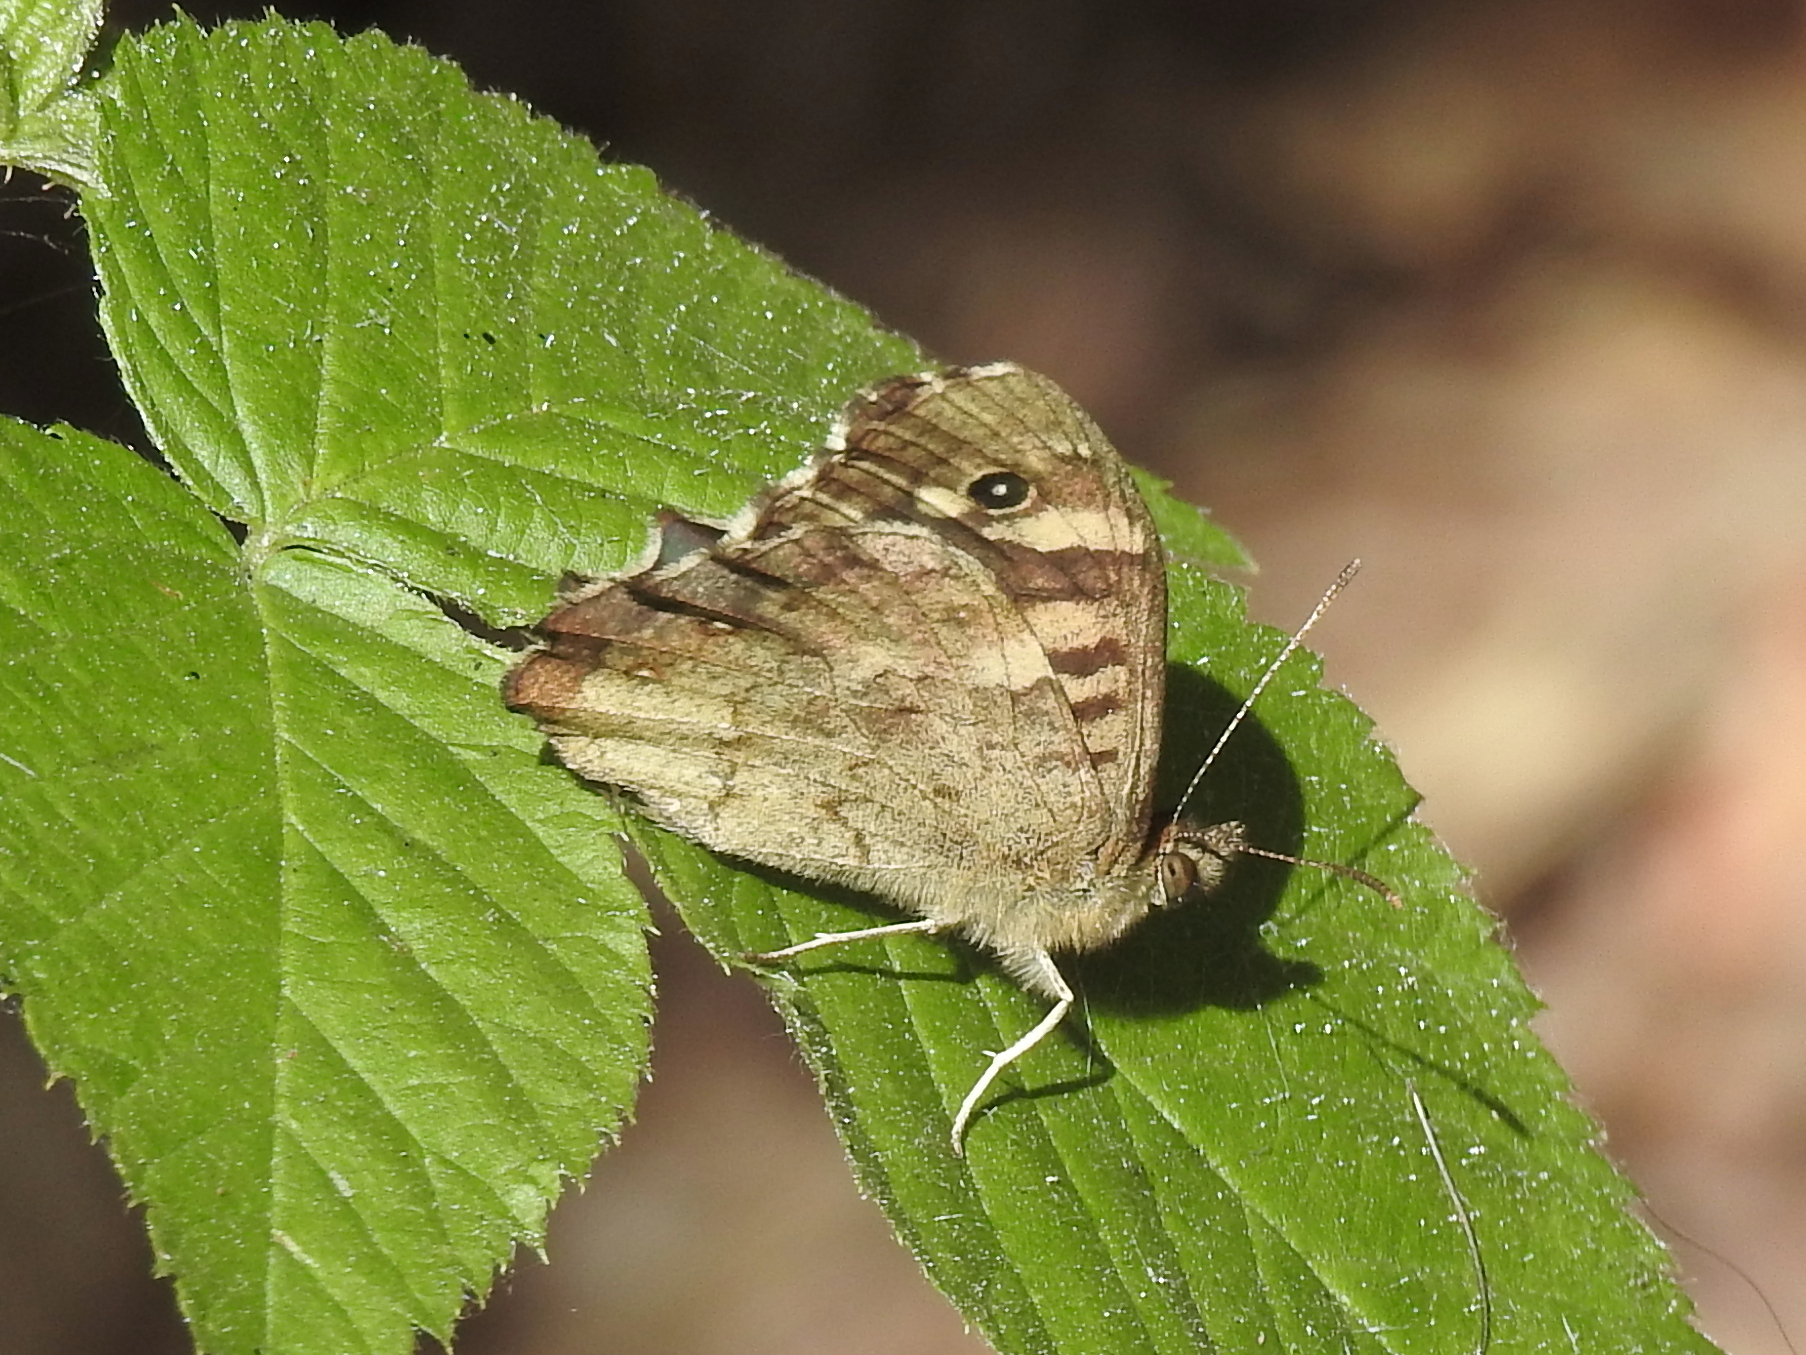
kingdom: Animalia
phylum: Arthropoda
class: Insecta
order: Lepidoptera
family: Nymphalidae
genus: Pararge
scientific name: Pararge aegeria
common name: Speckled wood
